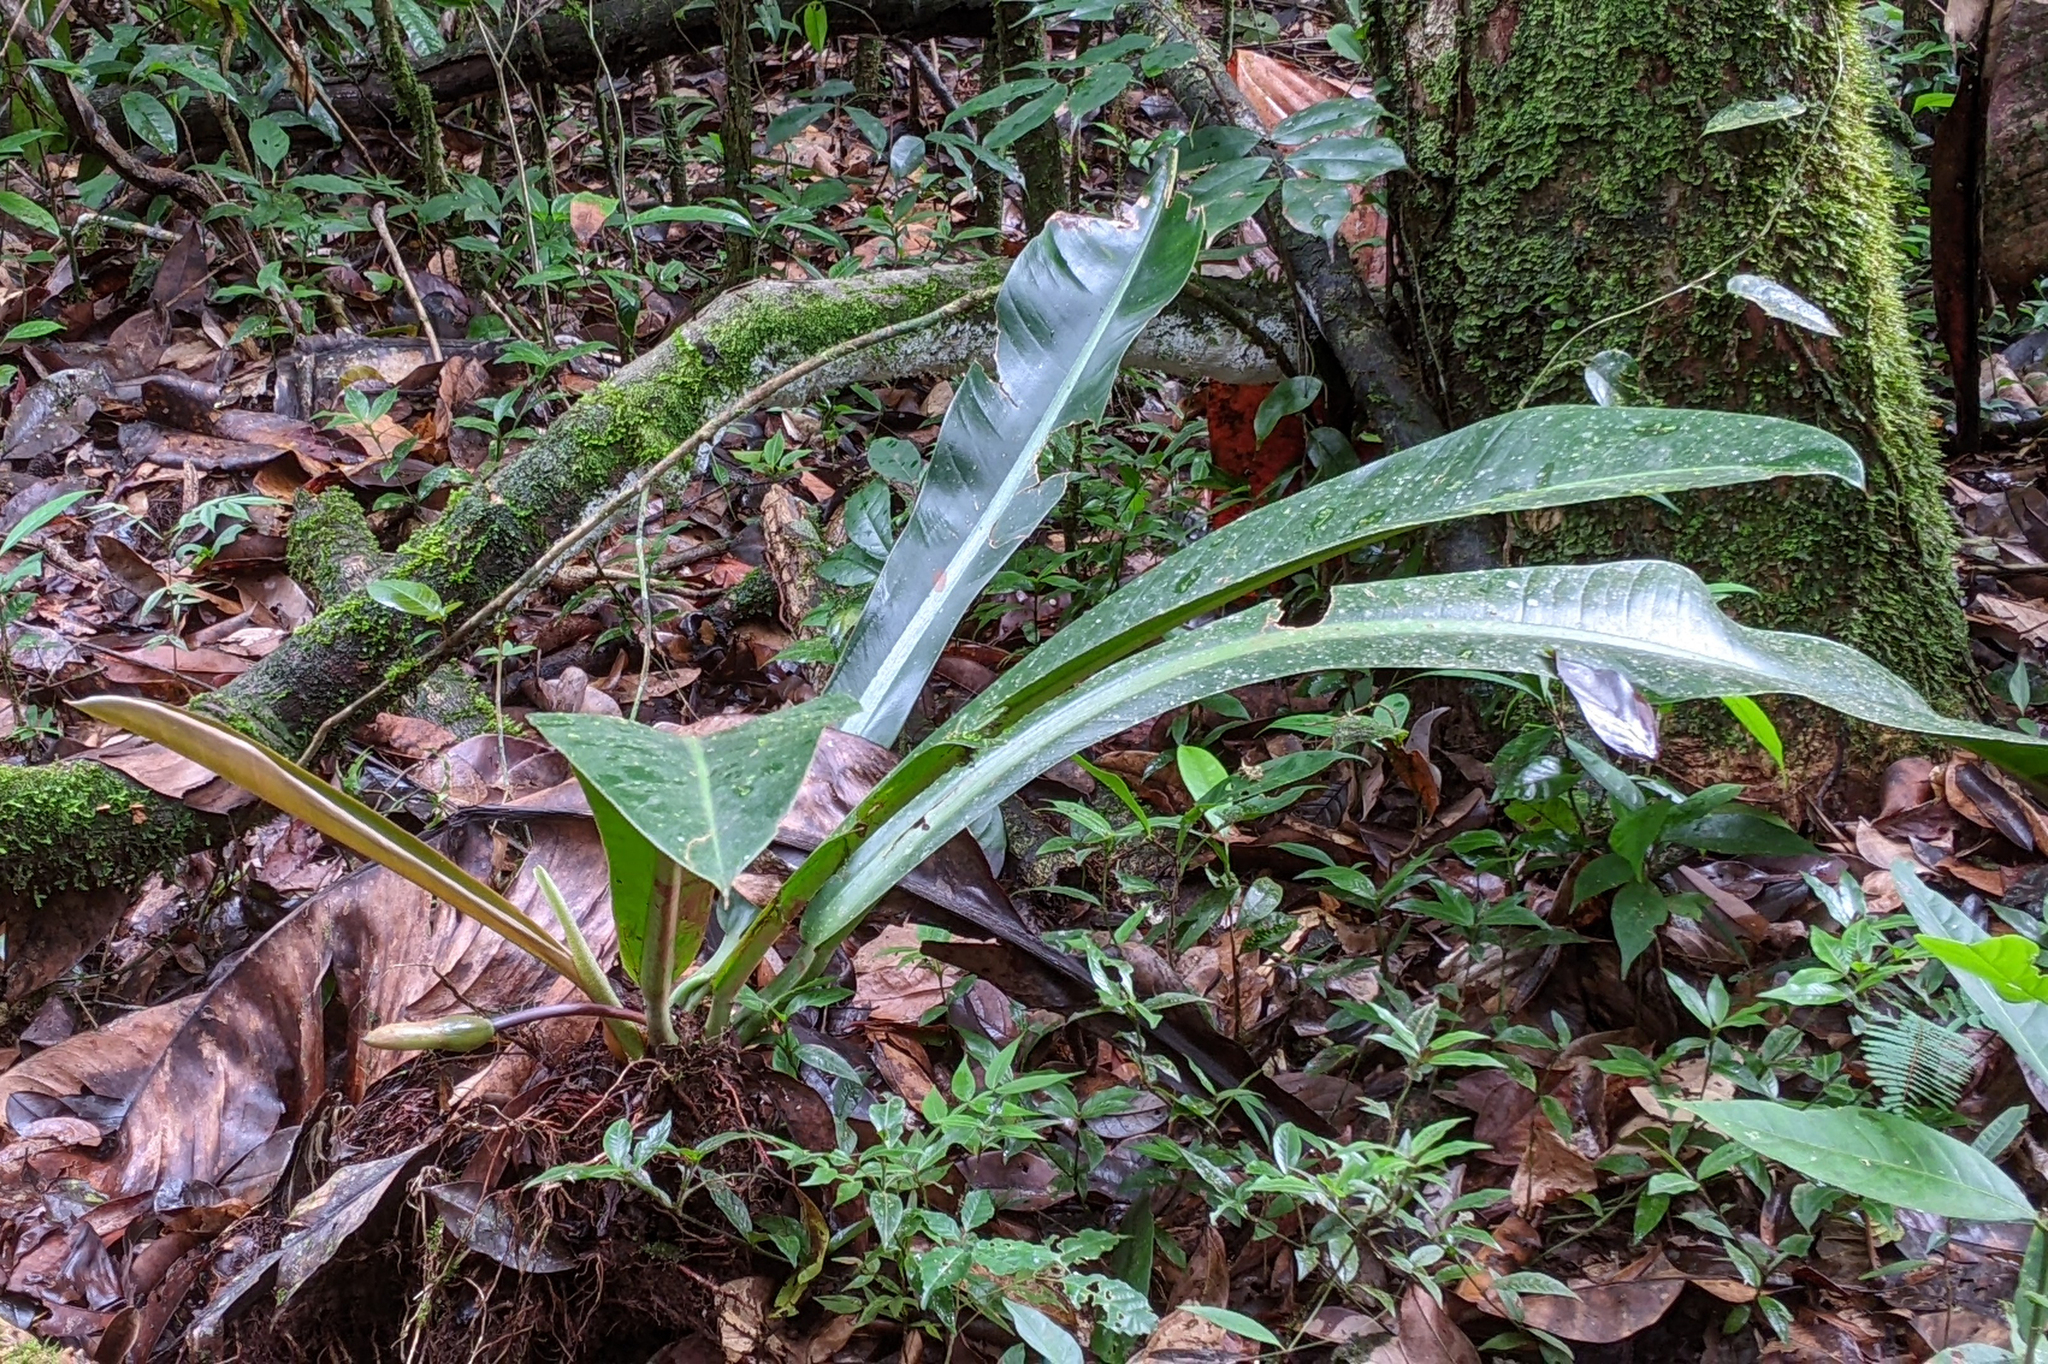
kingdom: Plantae
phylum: Tracheophyta
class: Liliopsida
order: Alismatales
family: Araceae
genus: Philodendron
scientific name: Philodendron linnaei
